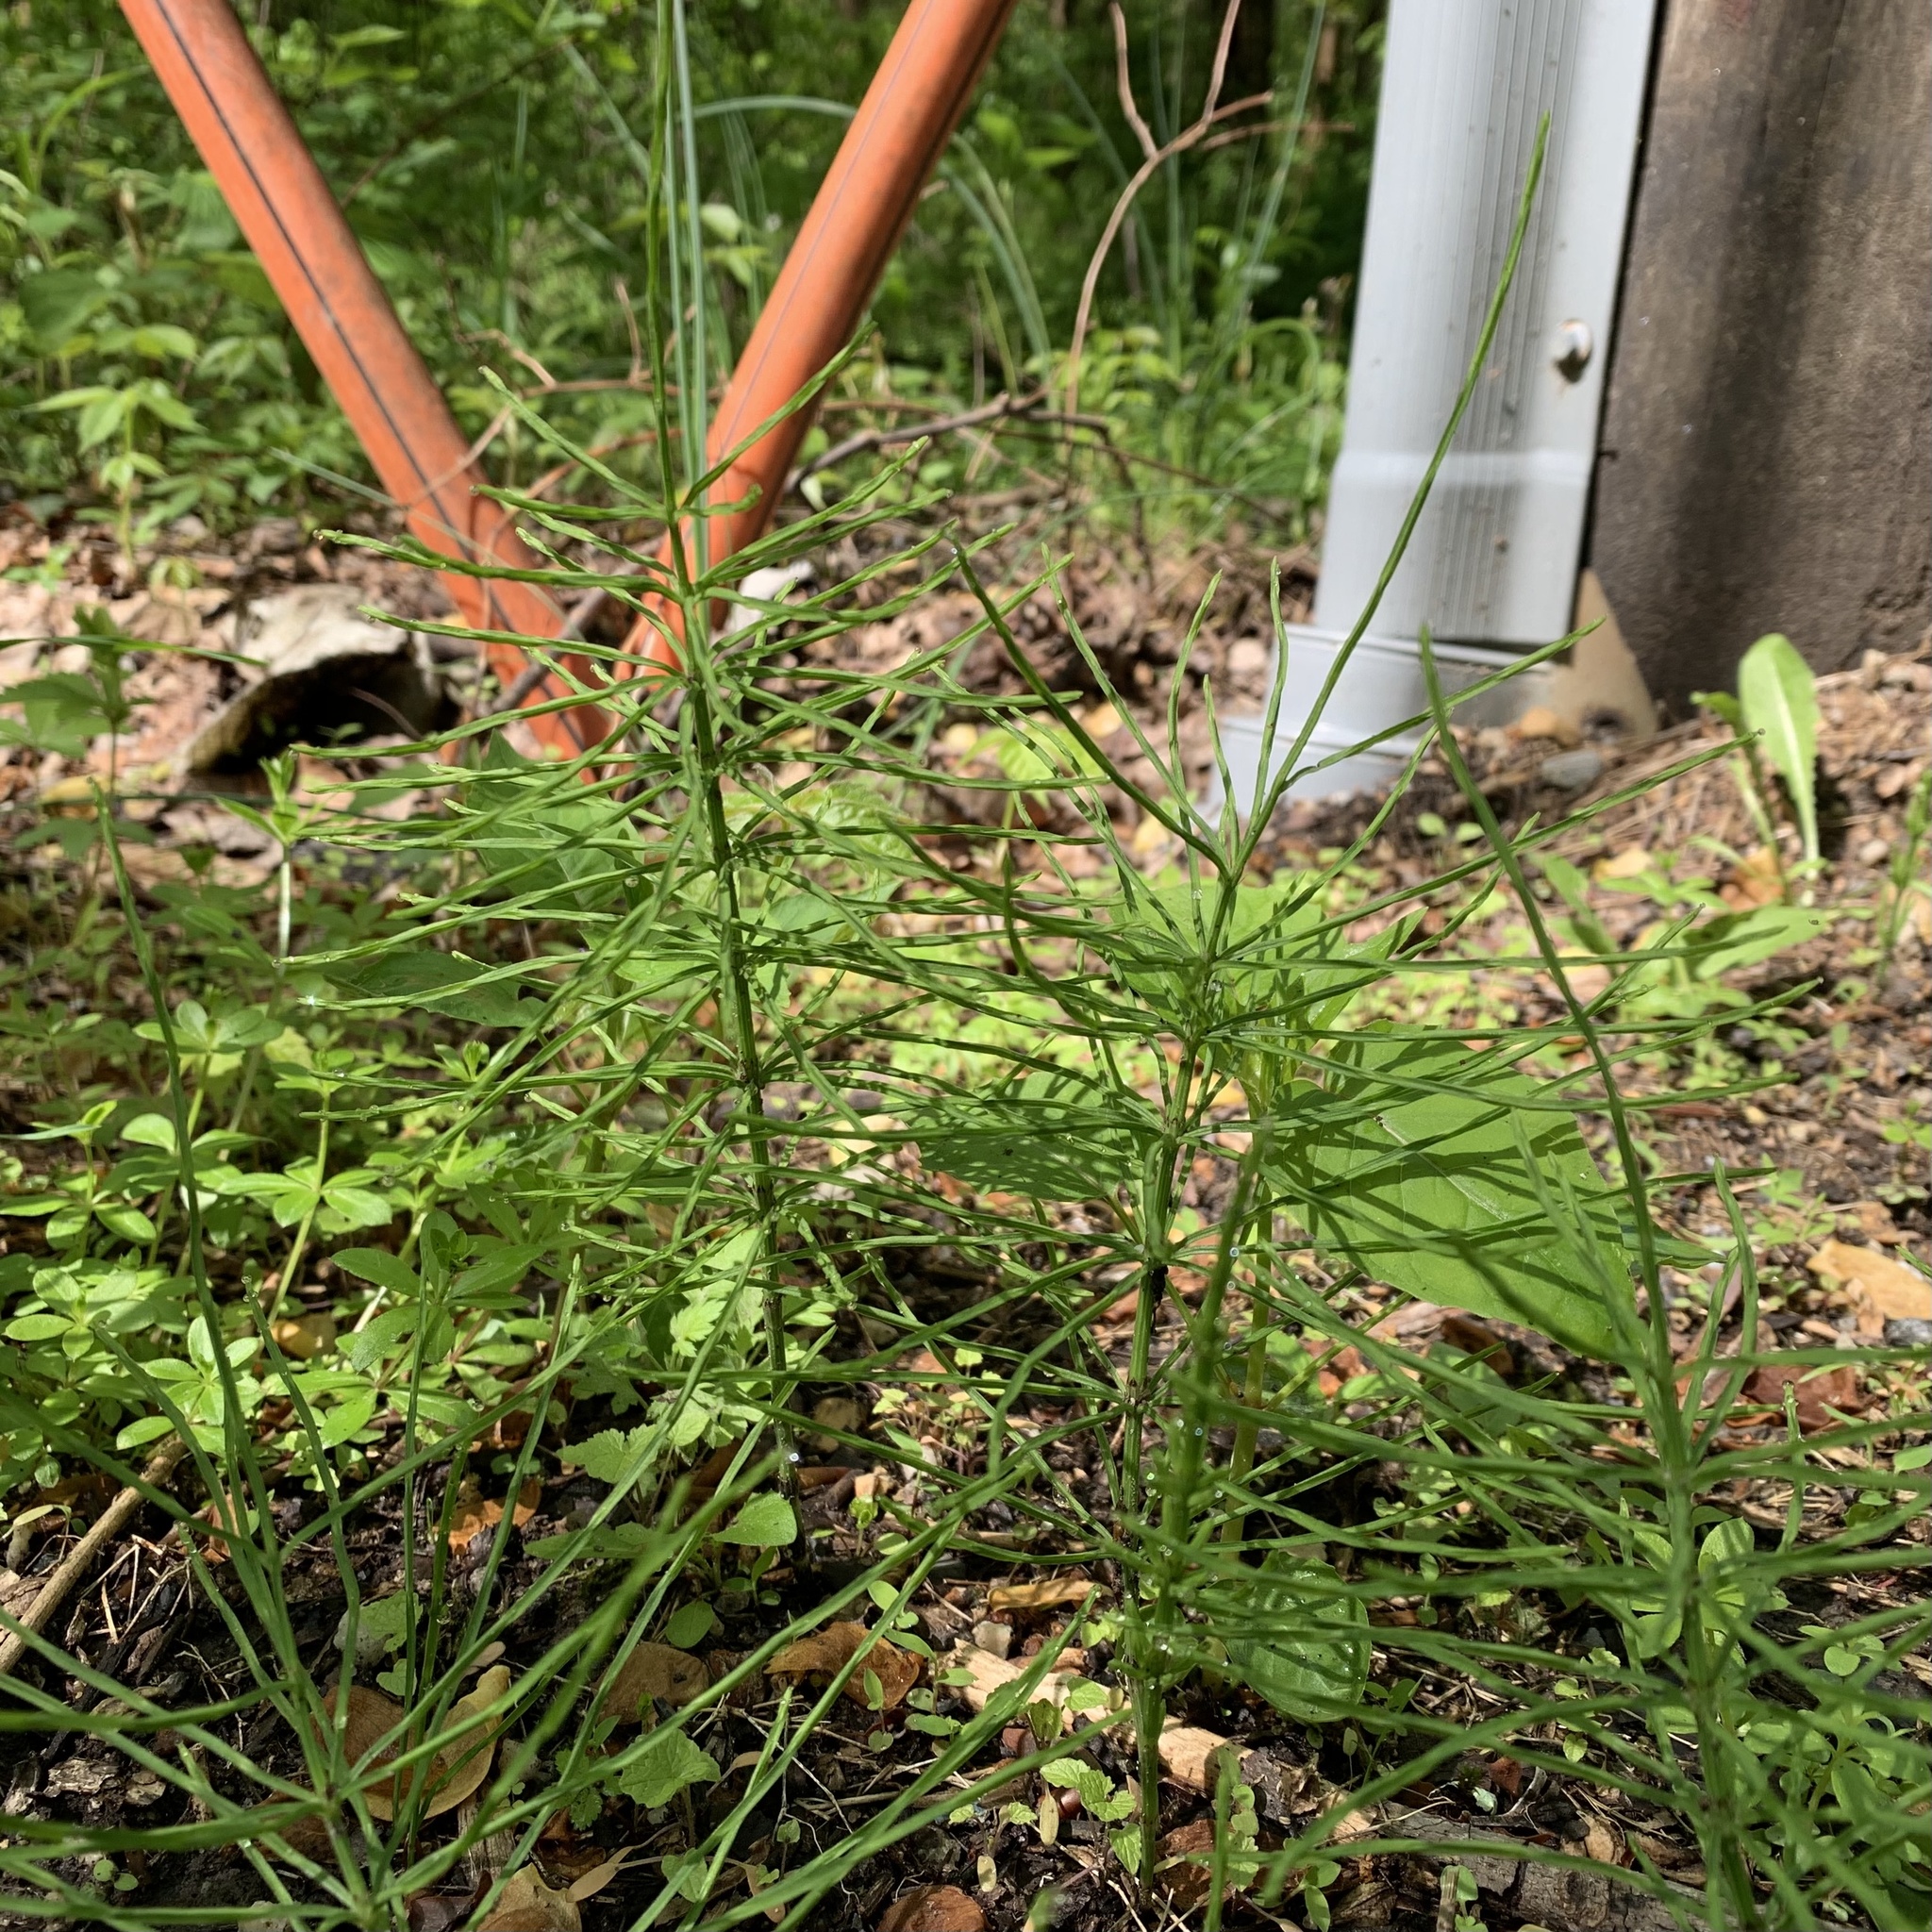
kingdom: Plantae
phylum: Tracheophyta
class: Polypodiopsida
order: Equisetales
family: Equisetaceae
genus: Equisetum
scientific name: Equisetum arvense
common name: Field horsetail
